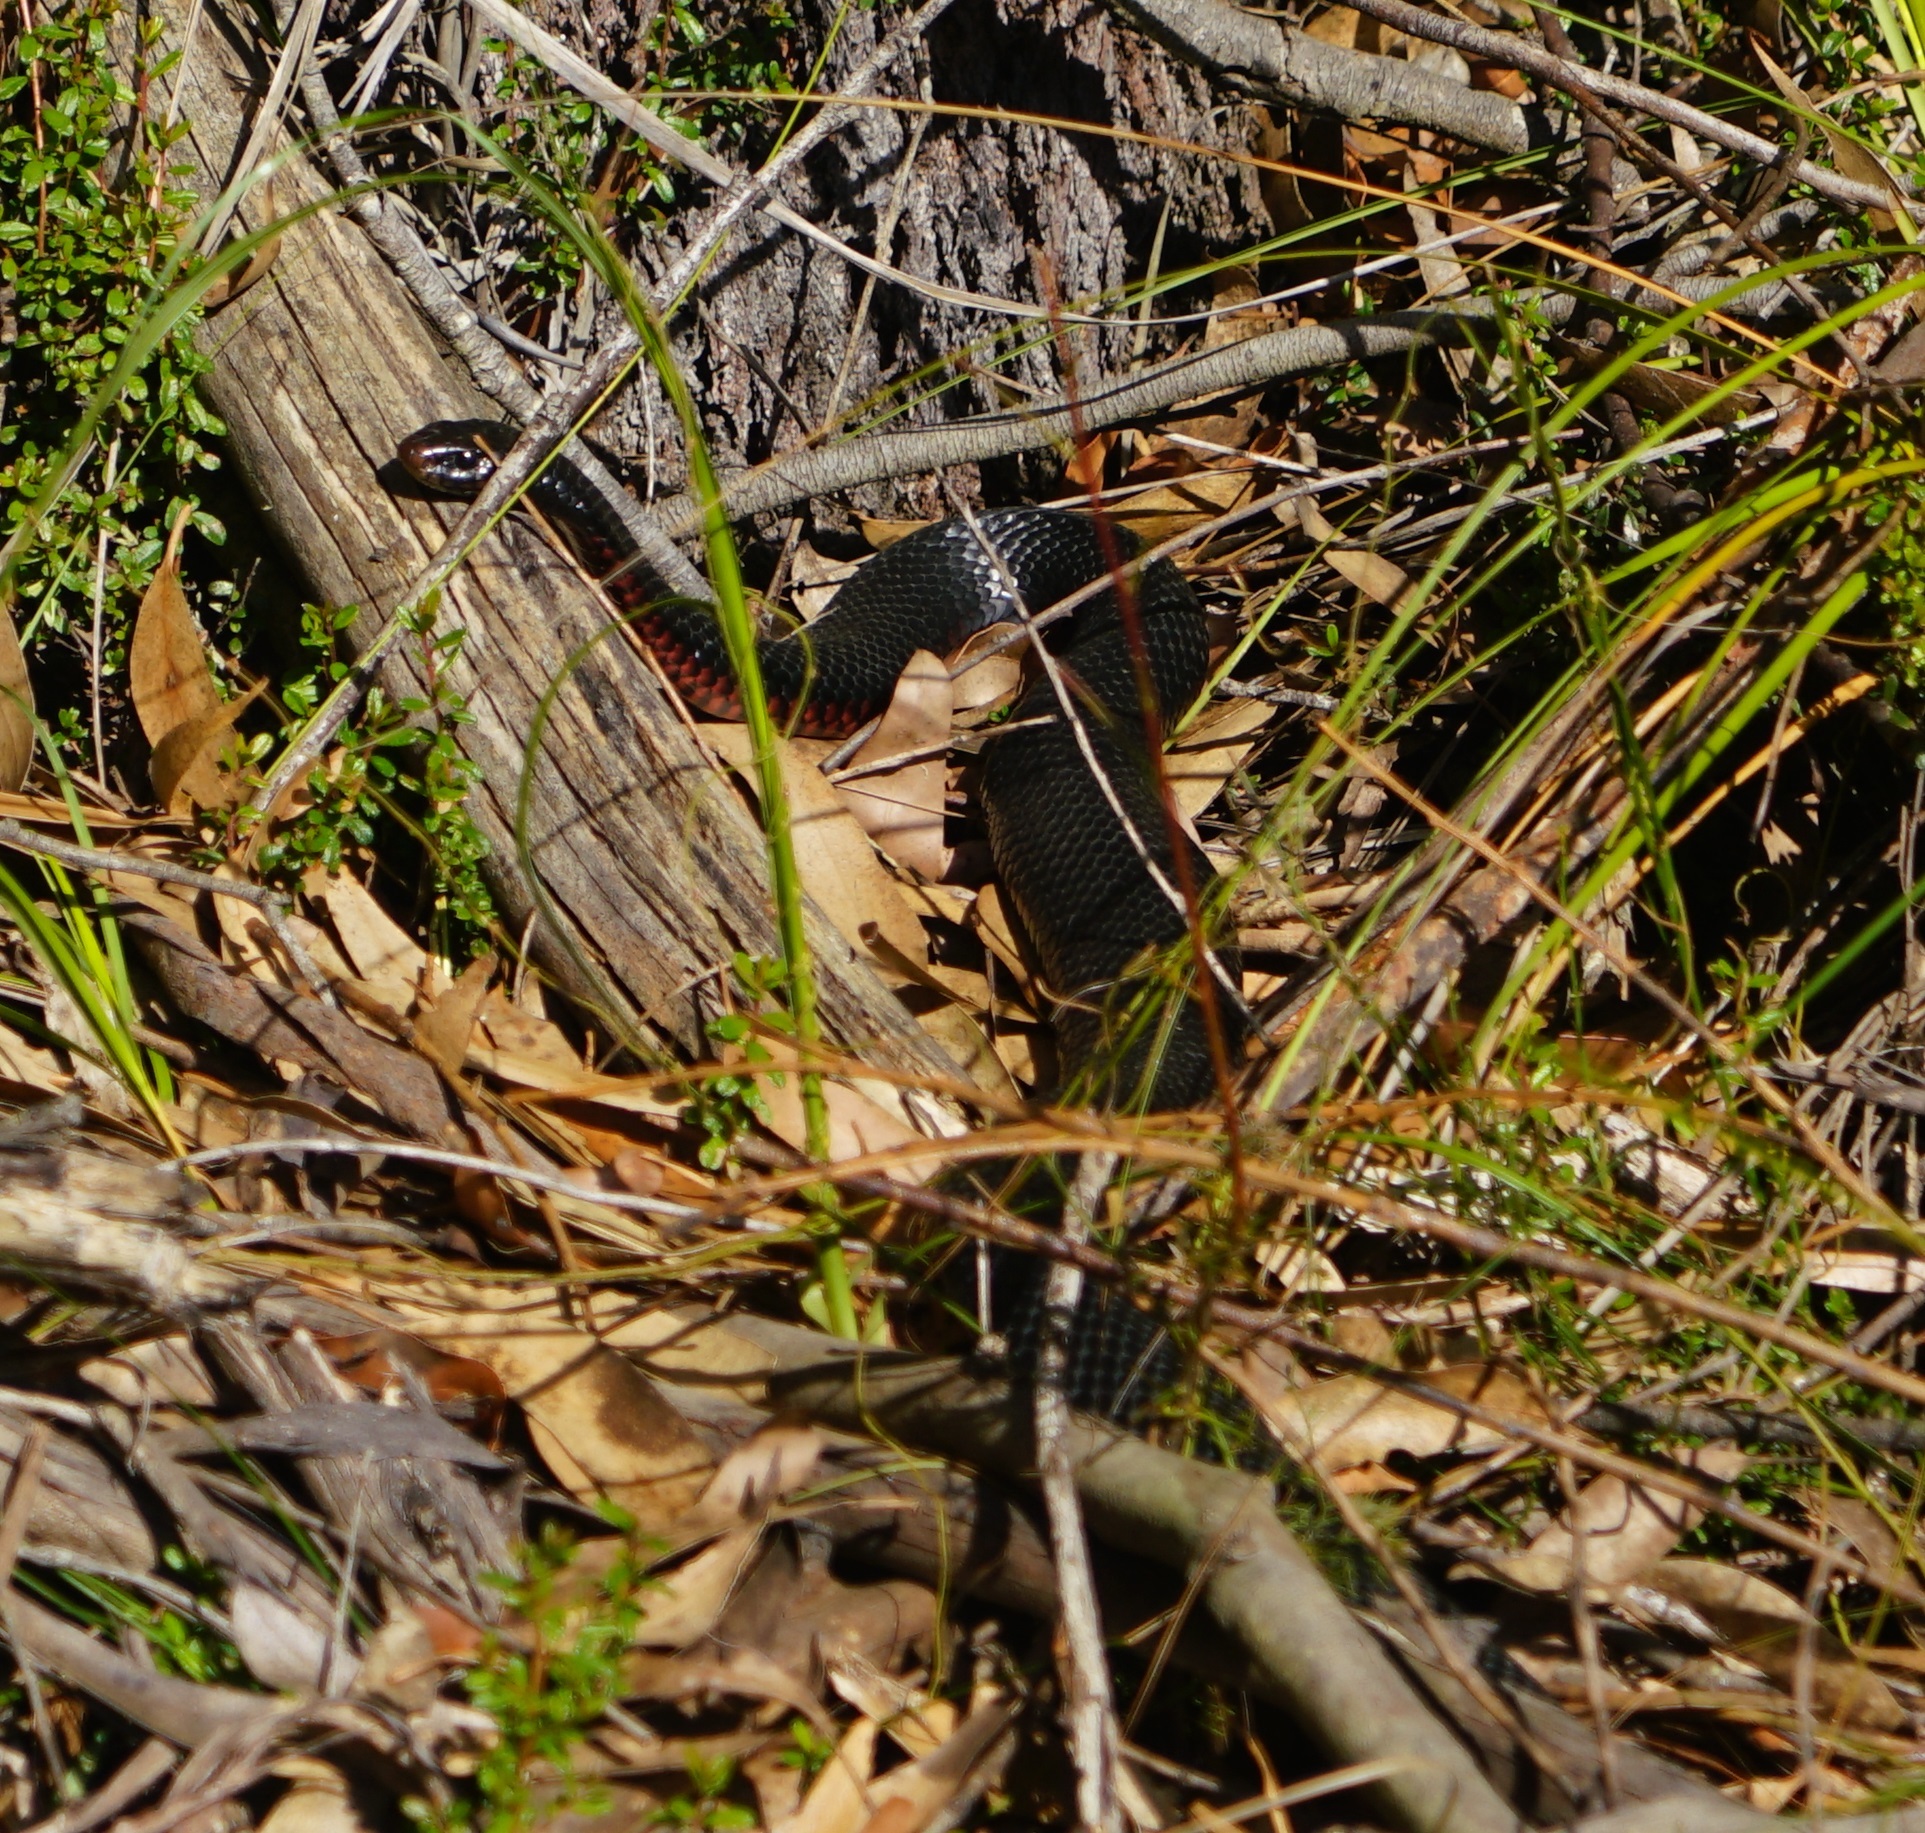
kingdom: Animalia
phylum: Chordata
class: Squamata
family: Elapidae
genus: Pseudechis
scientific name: Pseudechis porphyriacus
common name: Australian black snake
